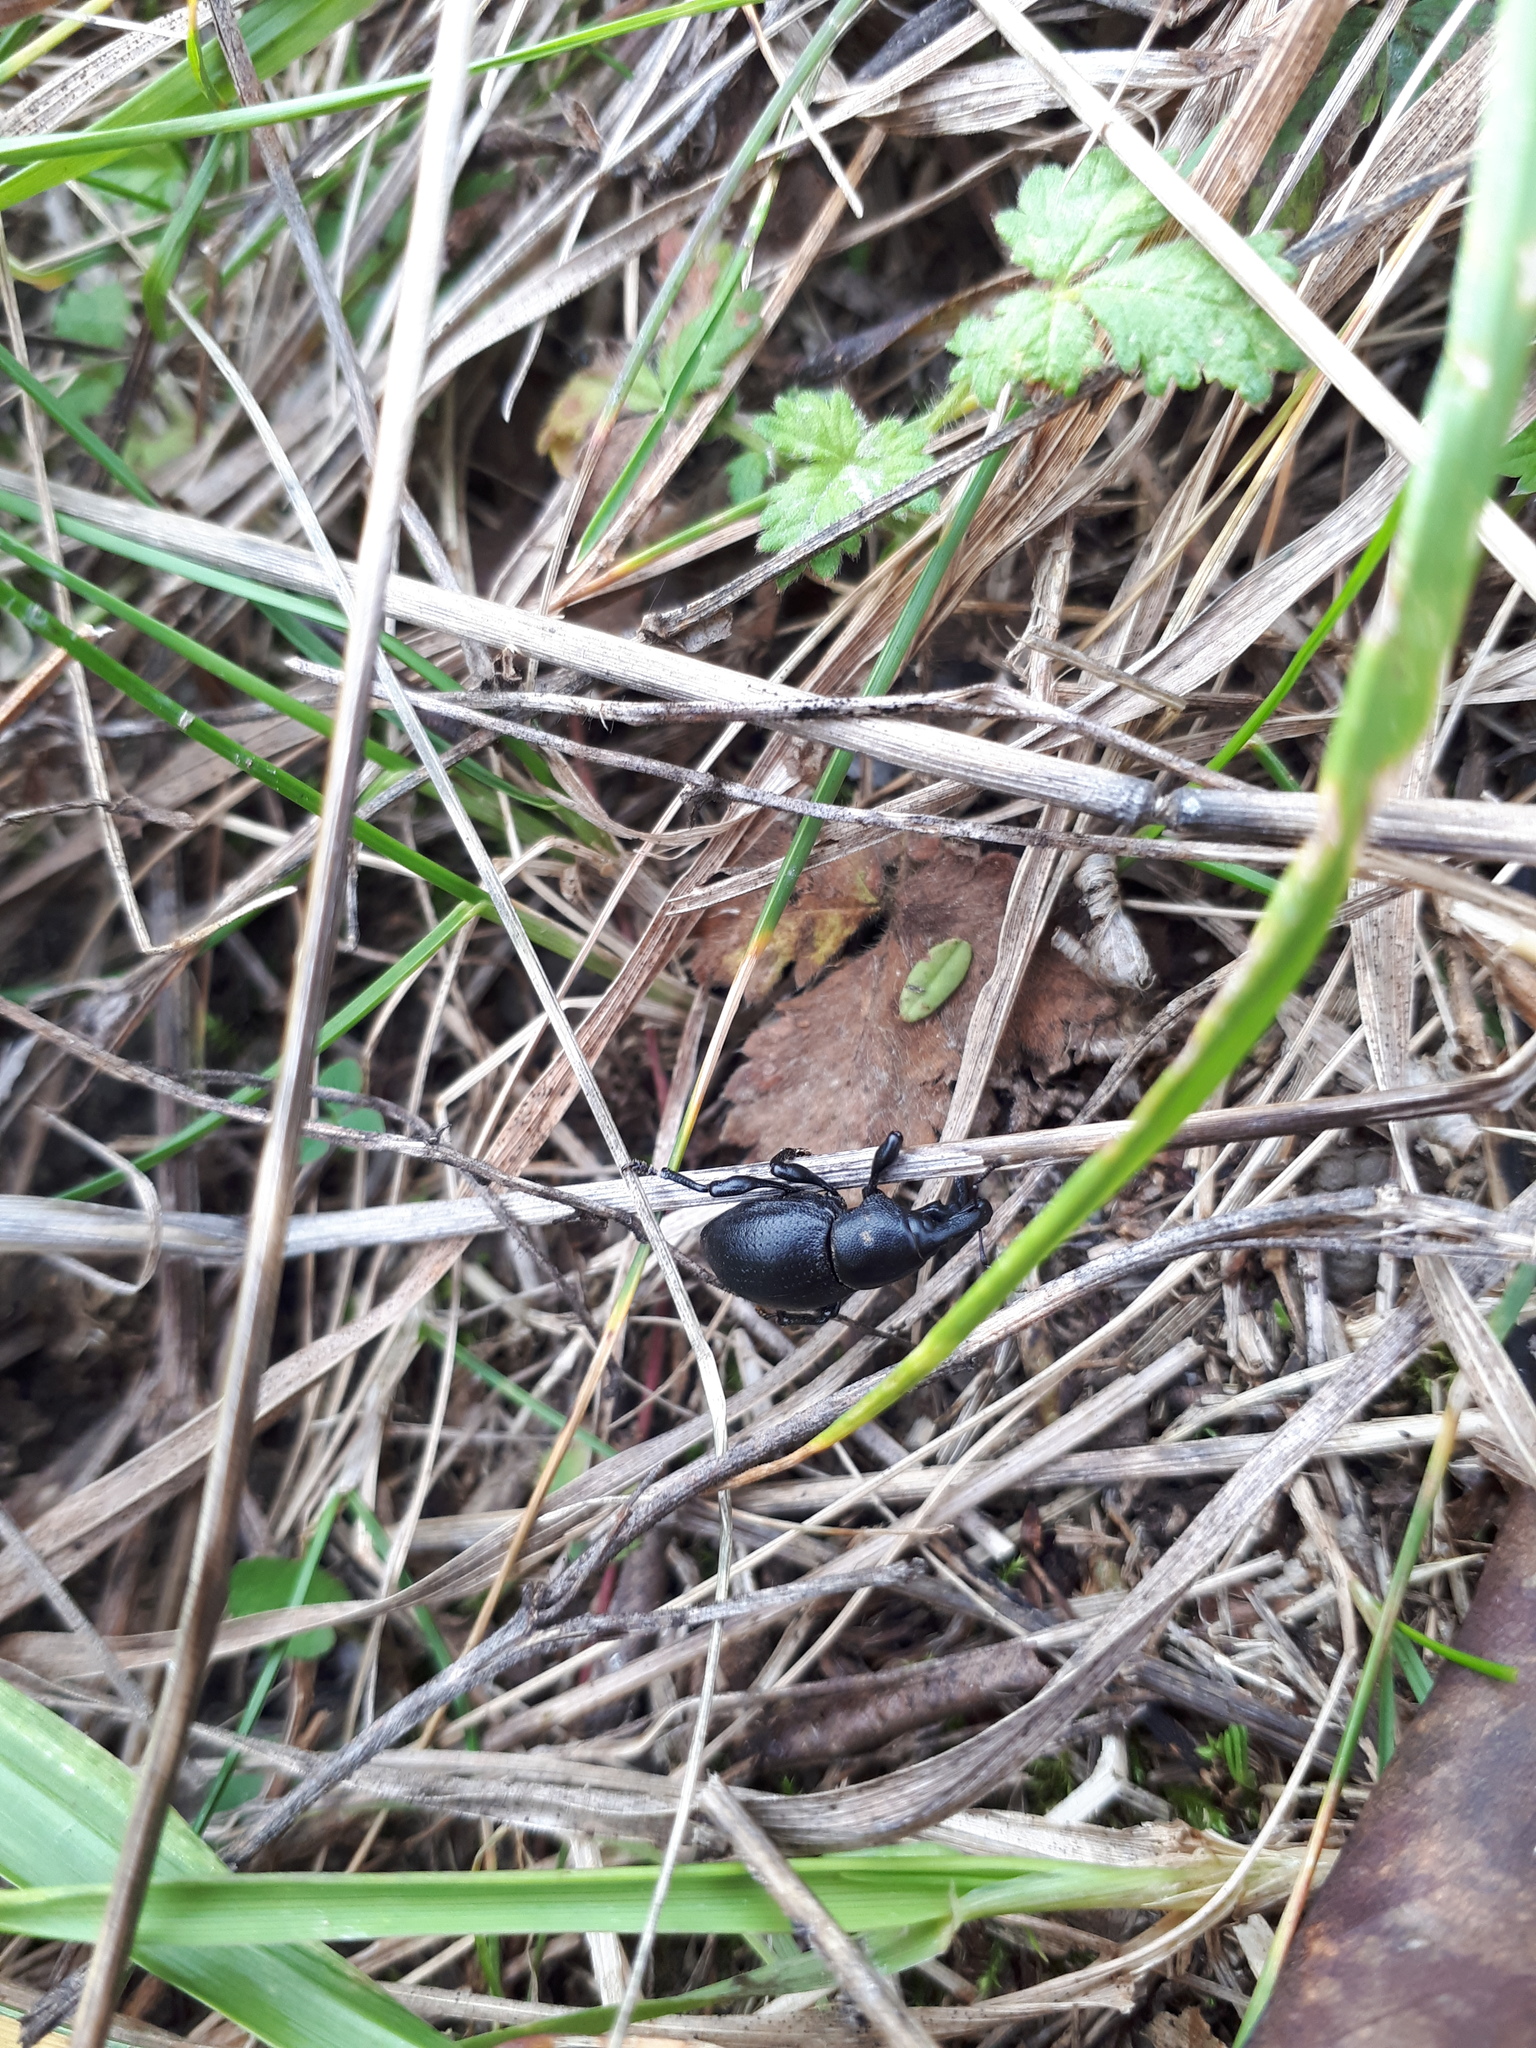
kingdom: Animalia
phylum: Arthropoda
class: Insecta
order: Coleoptera
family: Curculionidae
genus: Liparus
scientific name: Liparus coronatus
